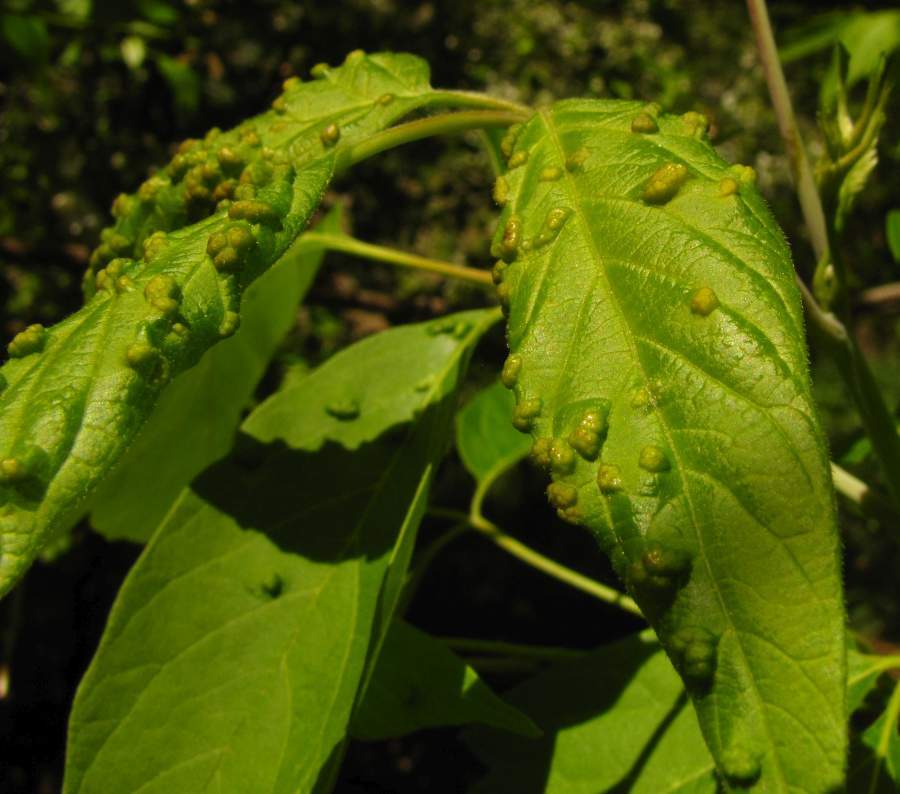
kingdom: Animalia
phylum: Arthropoda
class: Arachnida
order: Trombidiformes
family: Eriophyidae
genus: Aceria
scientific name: Aceria
